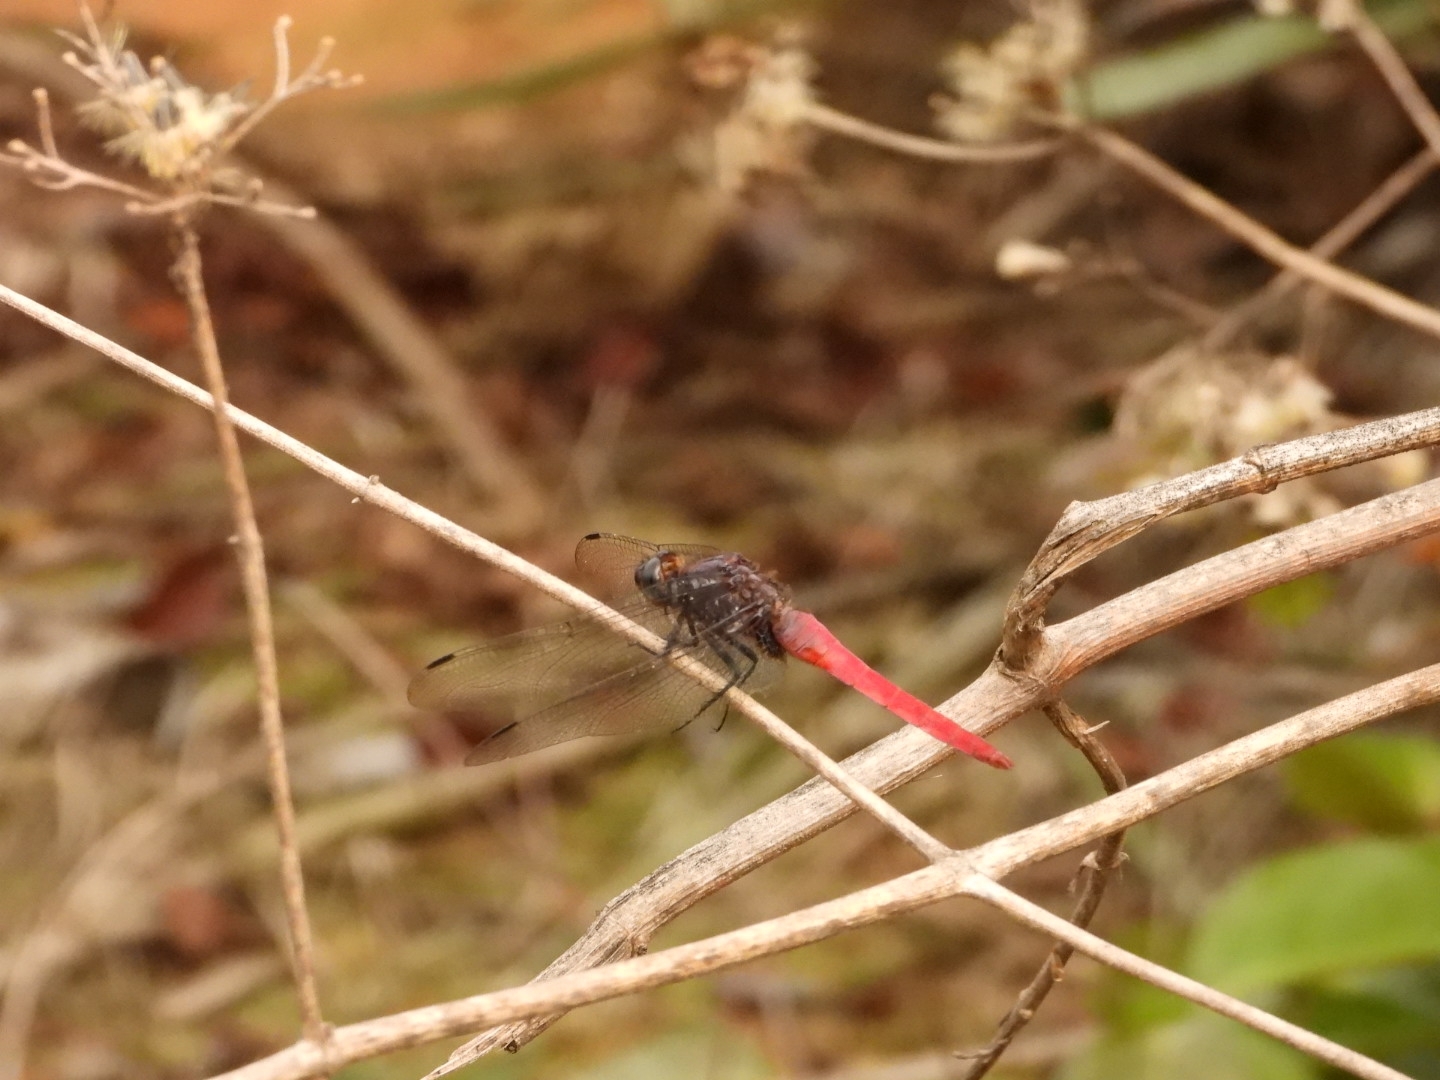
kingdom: Animalia
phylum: Arthropoda
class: Insecta
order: Odonata
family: Libellulidae
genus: Orthetrum
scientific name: Orthetrum pruinosum
